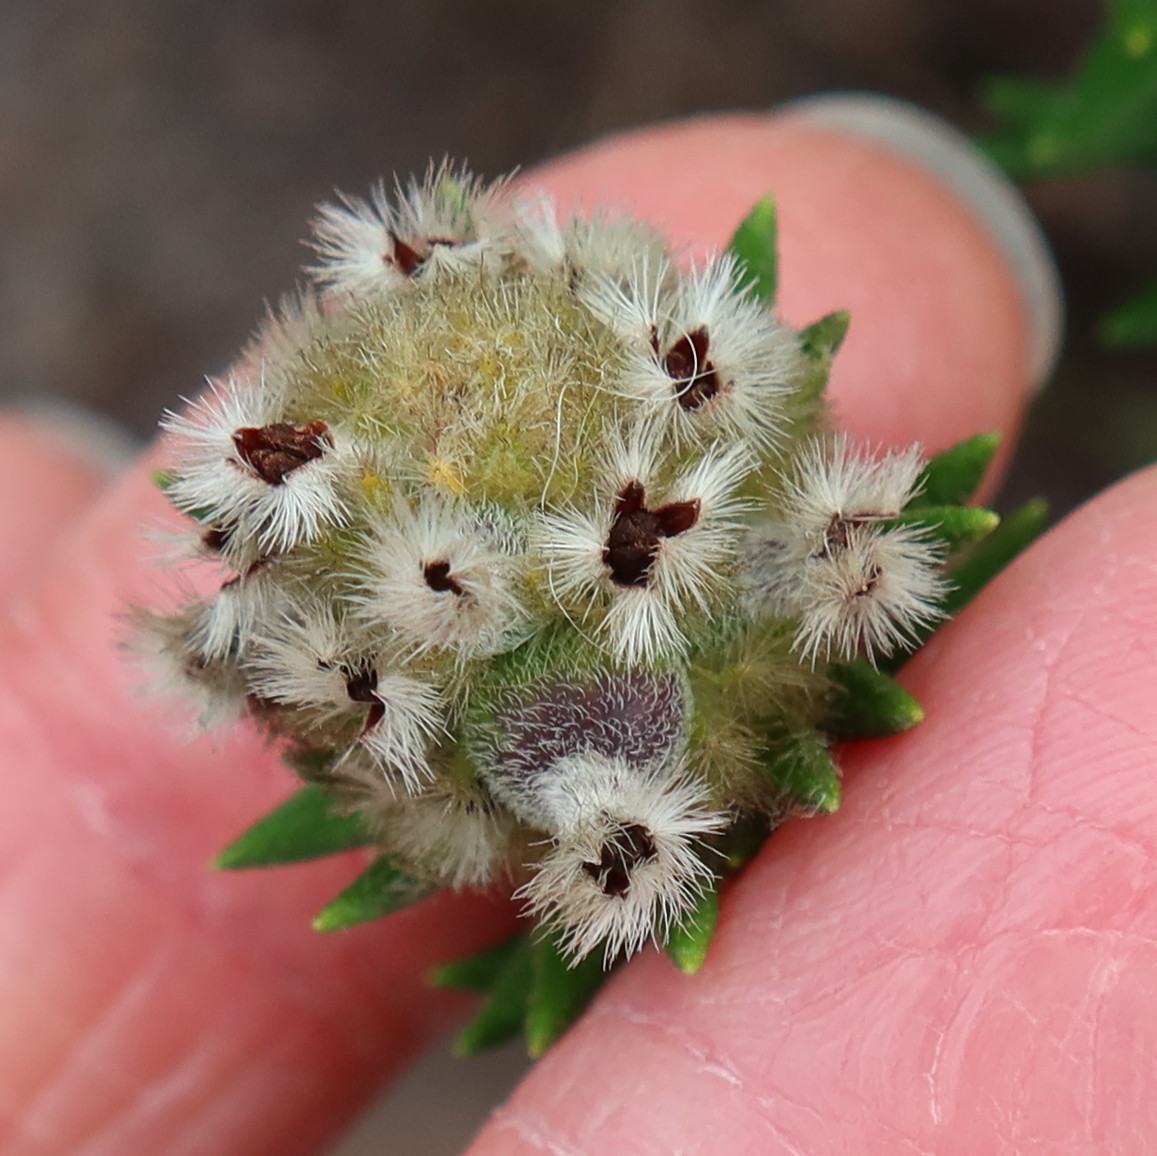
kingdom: Plantae
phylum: Tracheophyta
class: Magnoliopsida
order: Rosales
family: Rhamnaceae
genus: Phylica
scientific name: Phylica strigosa
